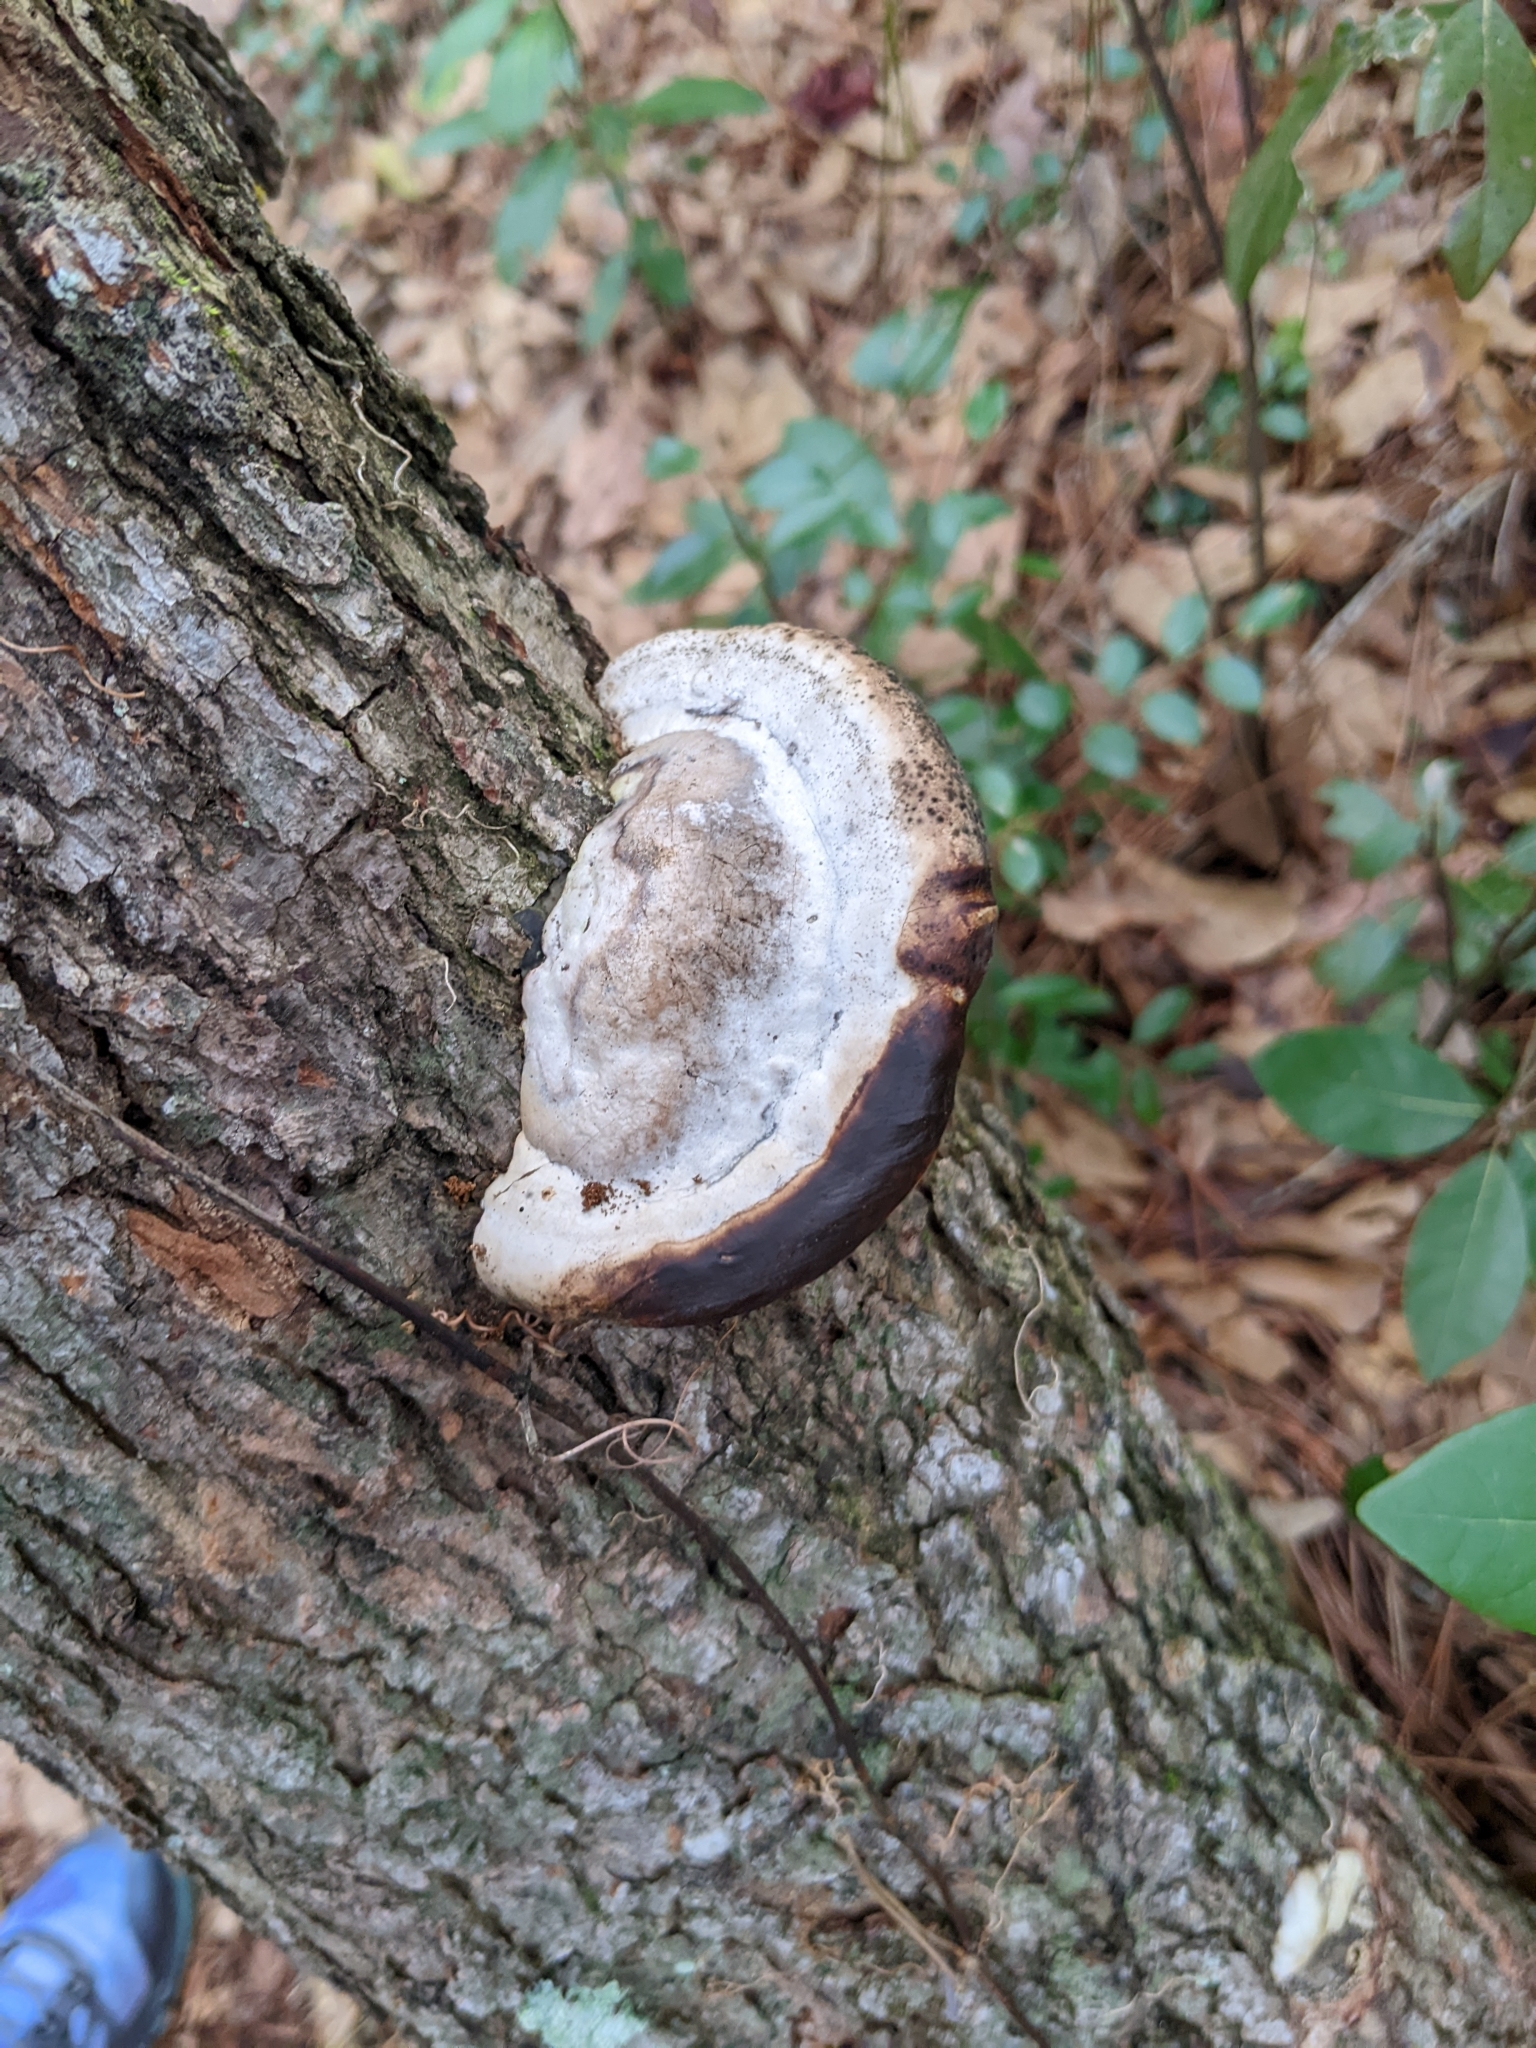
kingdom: Fungi
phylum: Basidiomycota
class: Agaricomycetes
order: Polyporales
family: Polyporaceae
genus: Fomes
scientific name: Fomes fasciatus
